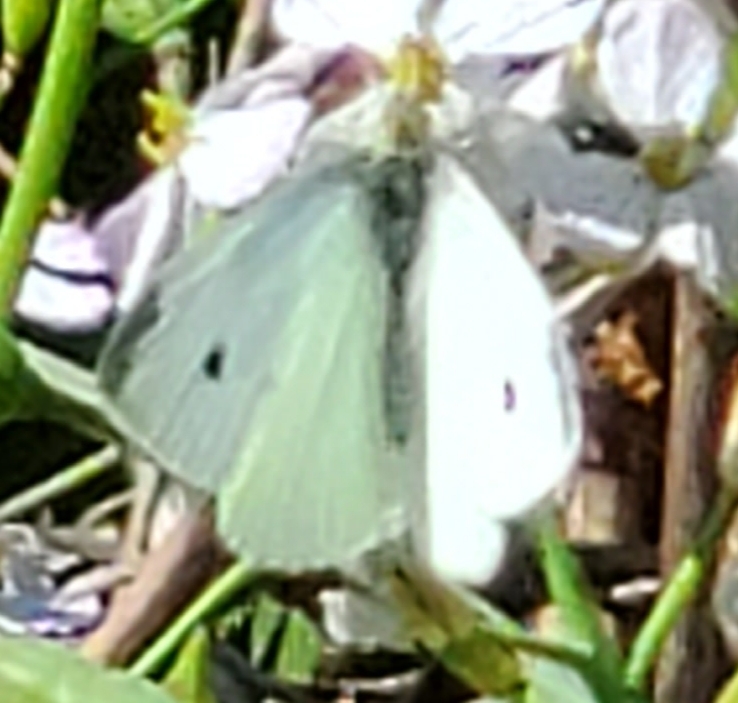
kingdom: Animalia
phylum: Arthropoda
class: Insecta
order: Lepidoptera
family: Pieridae
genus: Pieris
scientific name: Pieris rapae
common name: Small white
